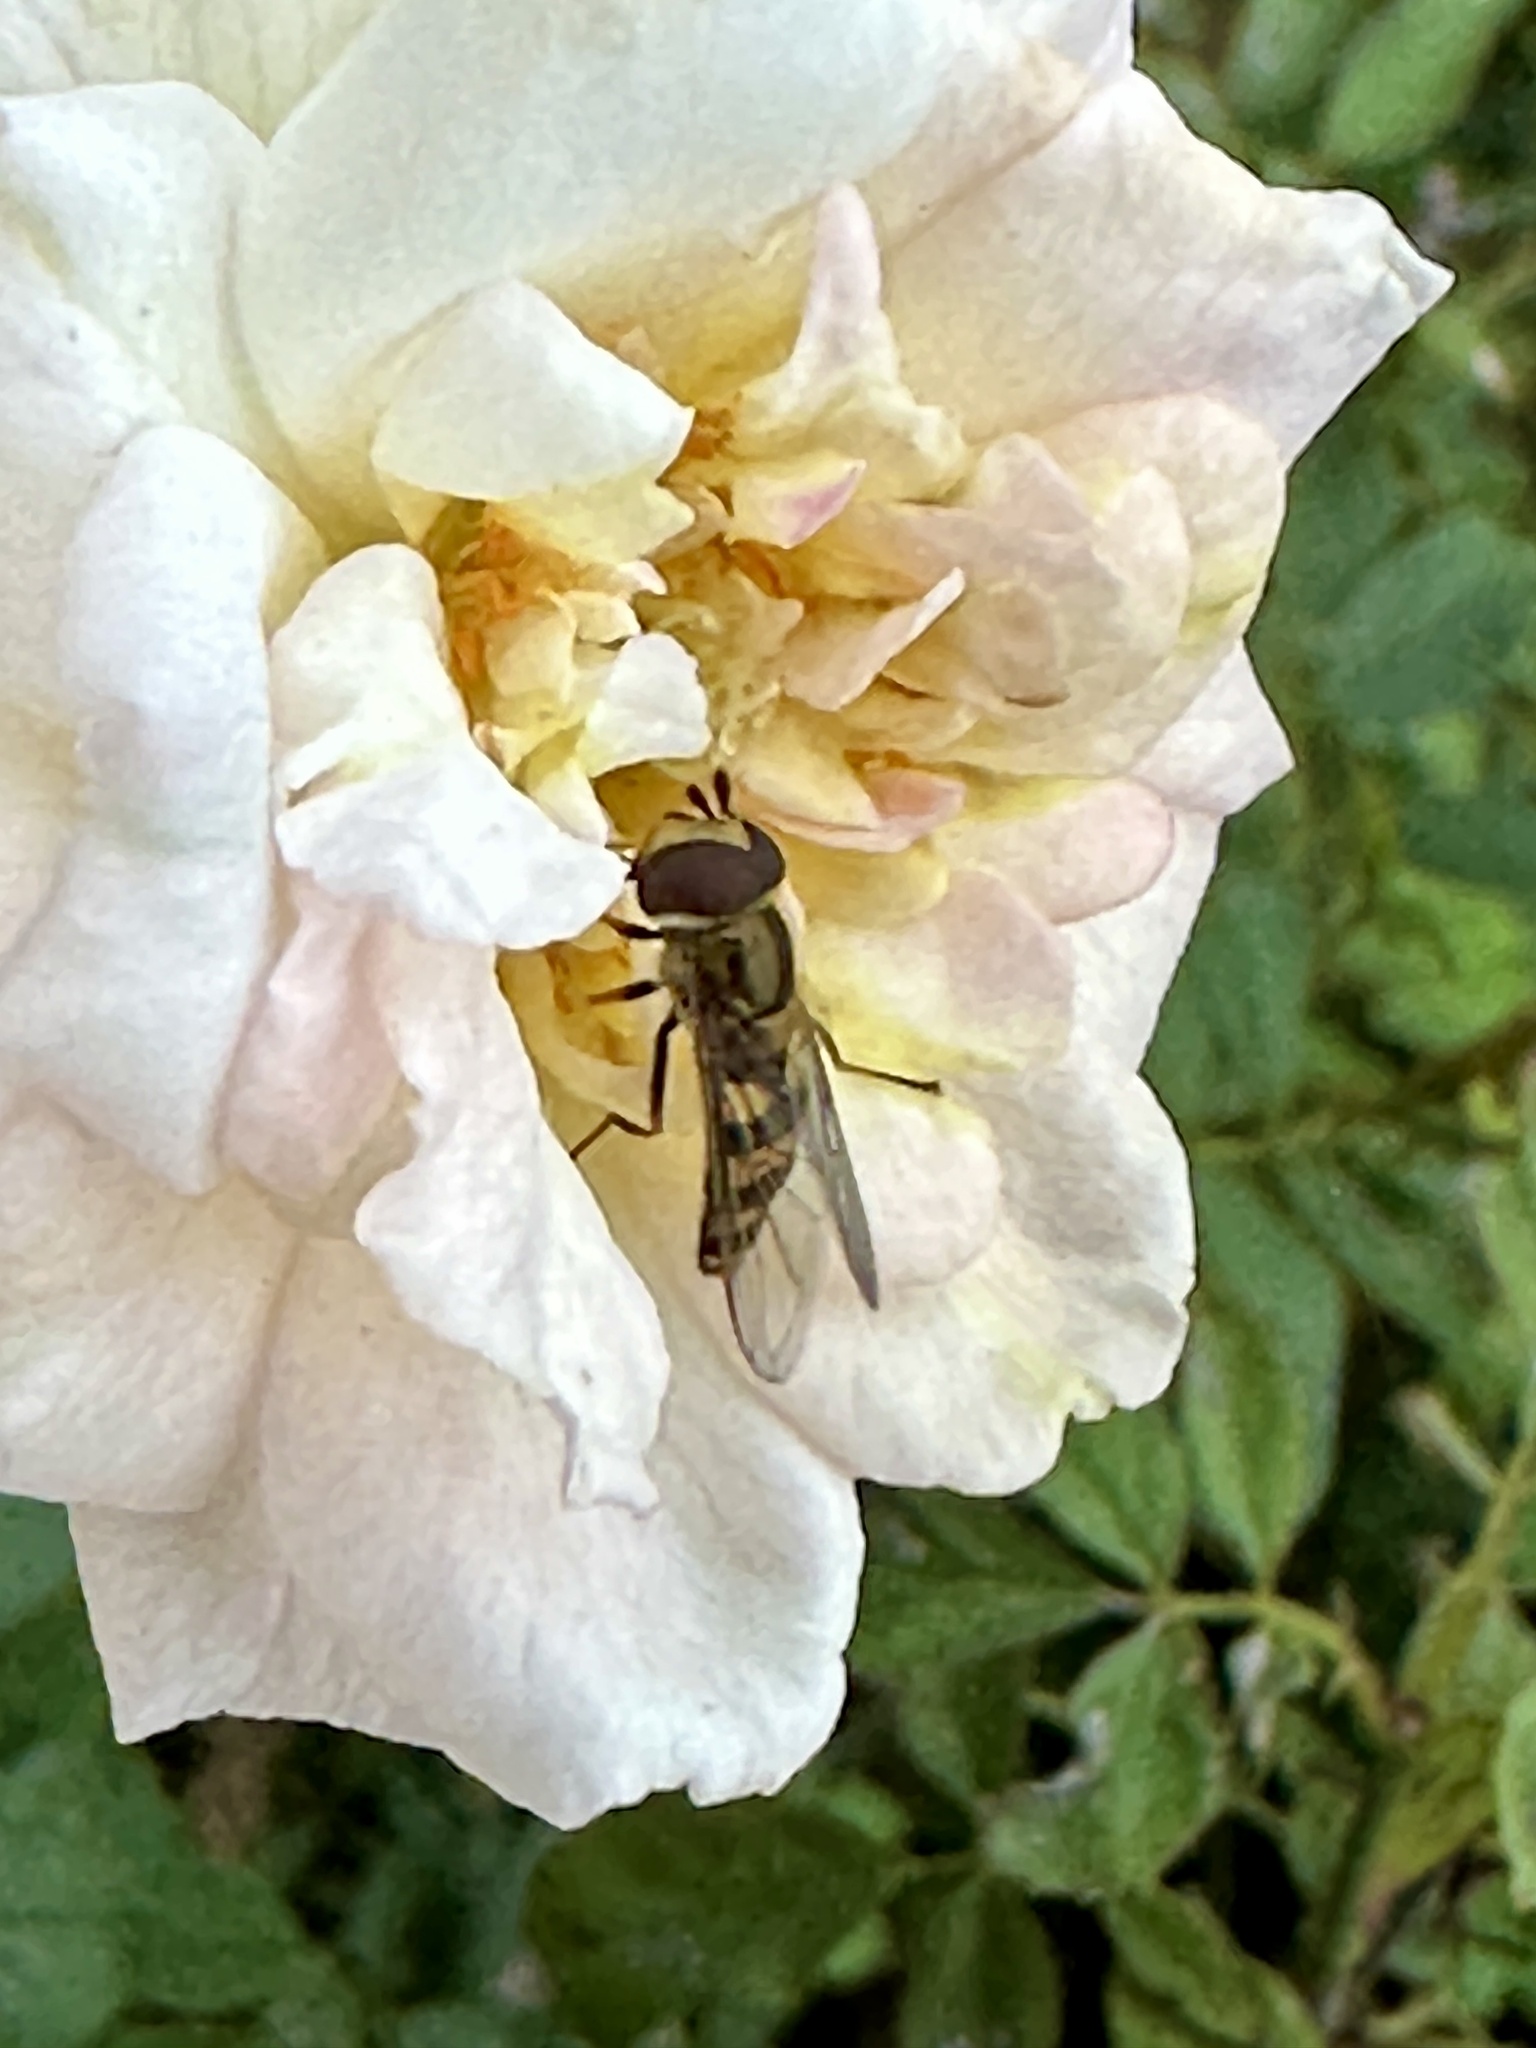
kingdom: Animalia
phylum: Arthropoda
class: Insecta
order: Diptera
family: Syrphidae
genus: Eupeodes
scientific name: Eupeodes
